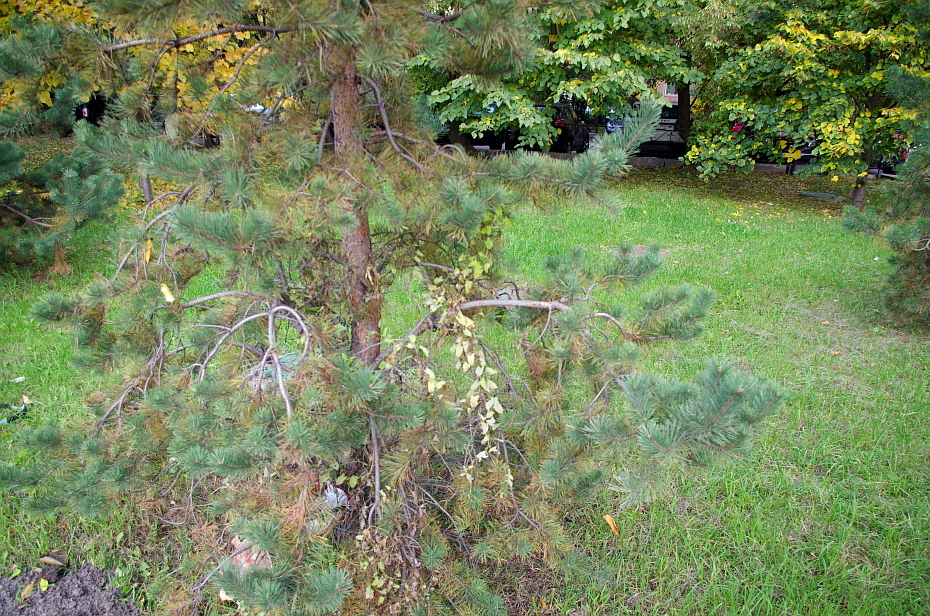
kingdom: Plantae
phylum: Tracheophyta
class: Magnoliopsida
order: Solanales
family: Convolvulaceae
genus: Convolvulus
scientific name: Convolvulus arvensis
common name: Field bindweed
